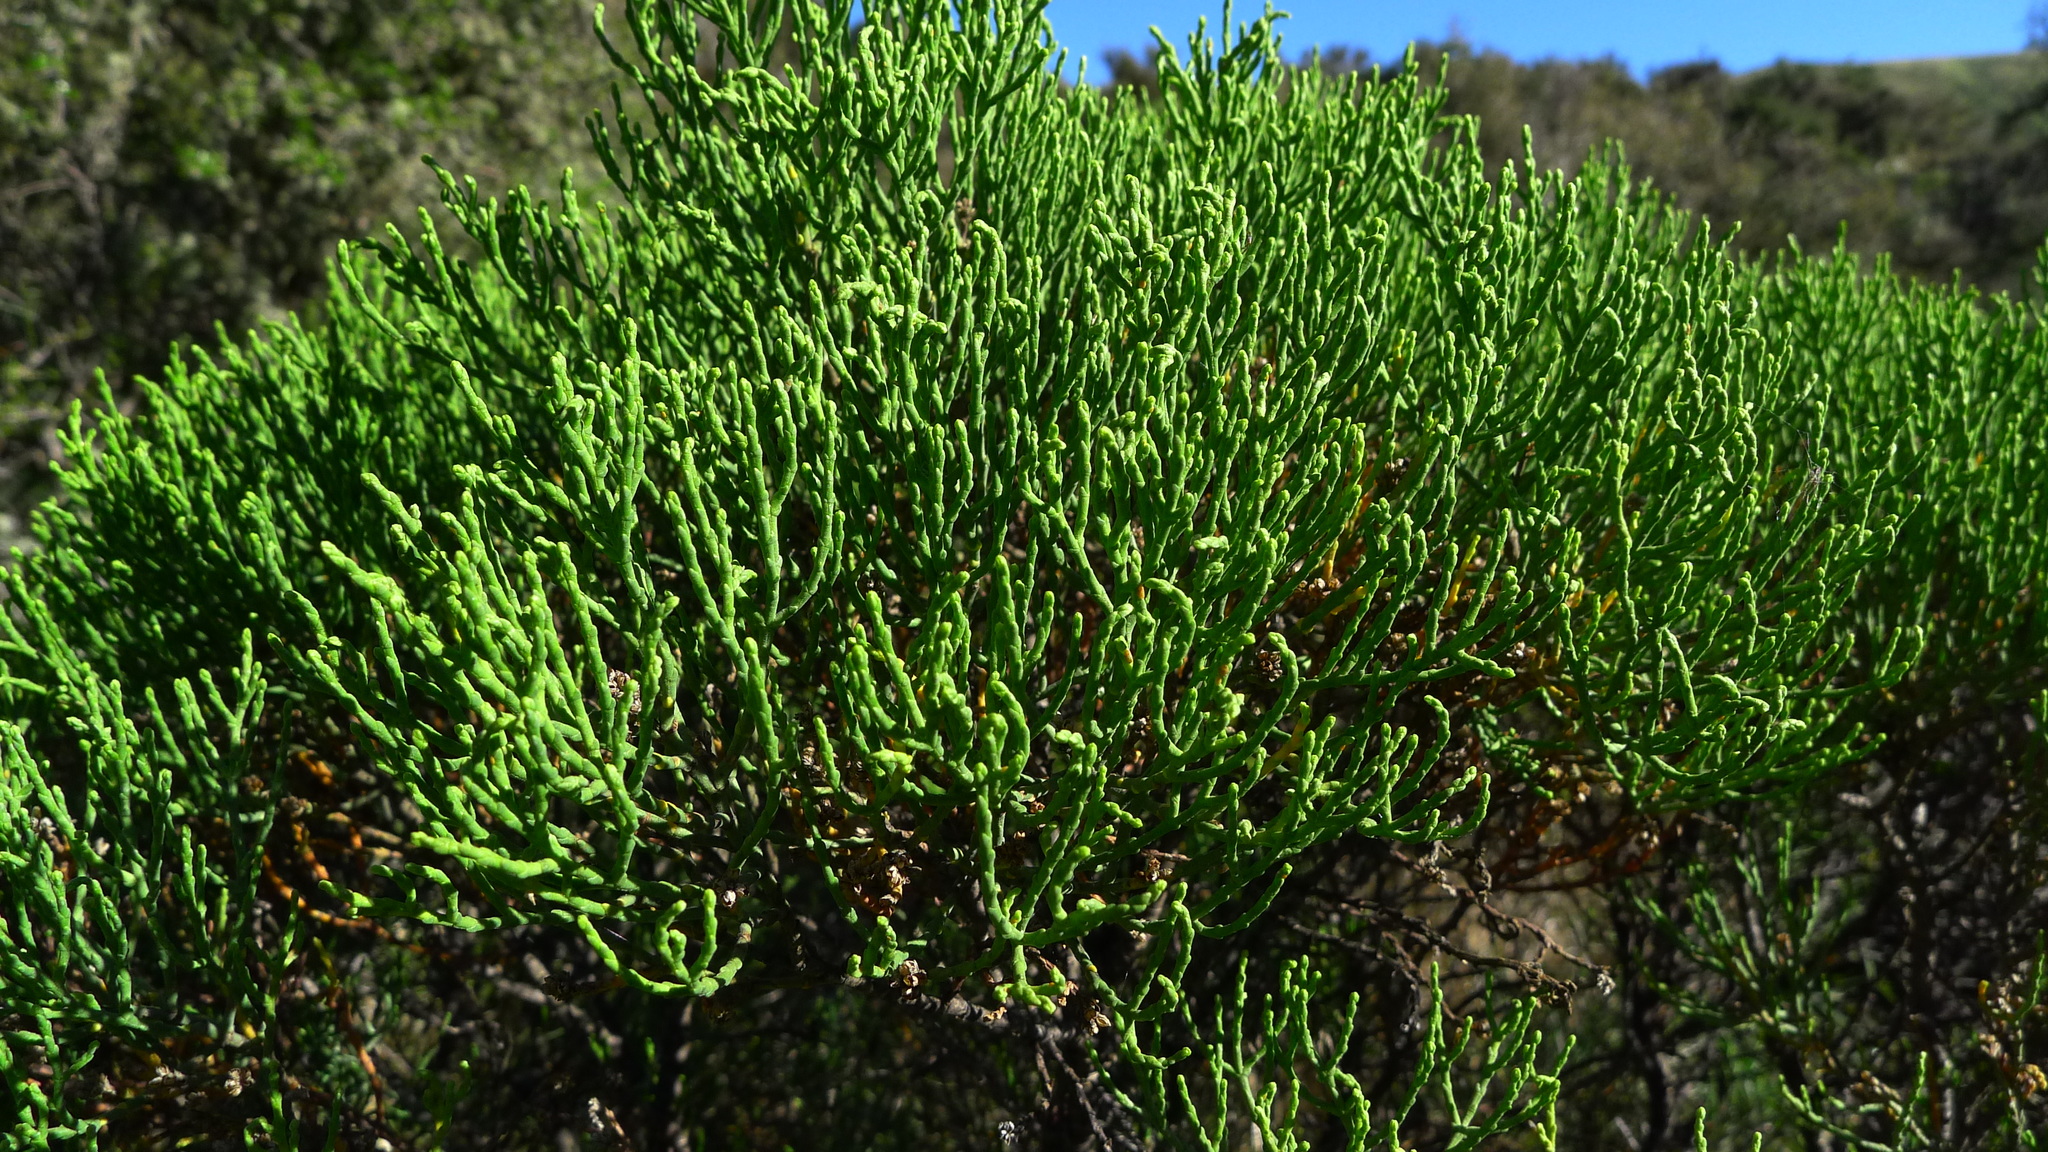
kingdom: Plantae
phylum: Tracheophyta
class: Magnoliopsida
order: Lamiales
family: Plantaginaceae
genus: Veronica
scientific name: Veronica cupressoides
